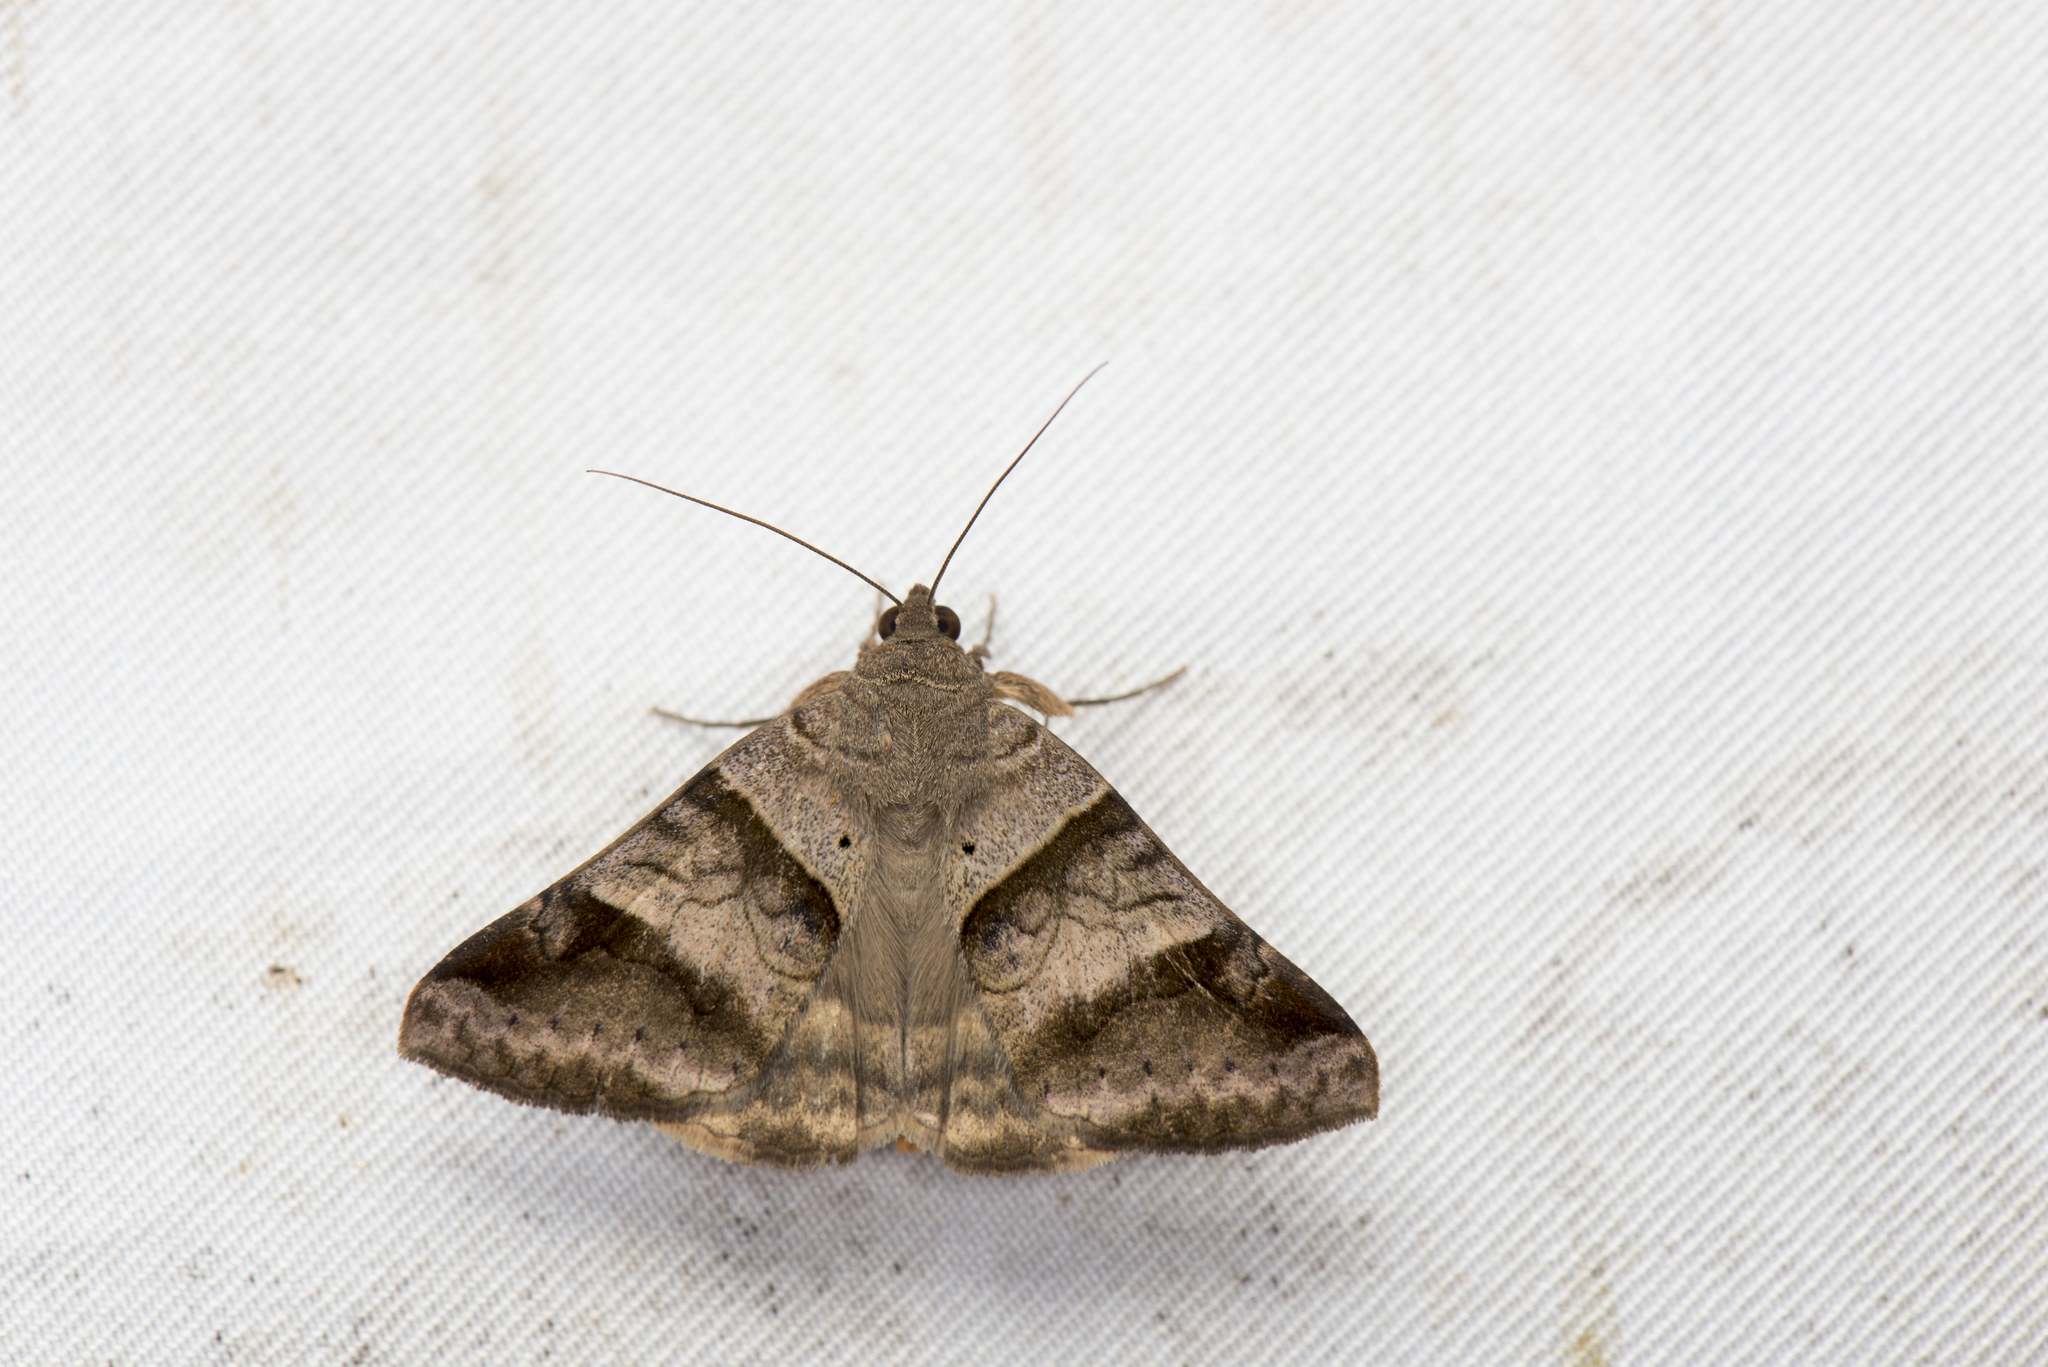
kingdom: Animalia
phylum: Arthropoda
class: Insecta
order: Lepidoptera
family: Erebidae
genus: Mocis
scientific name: Mocis undata
